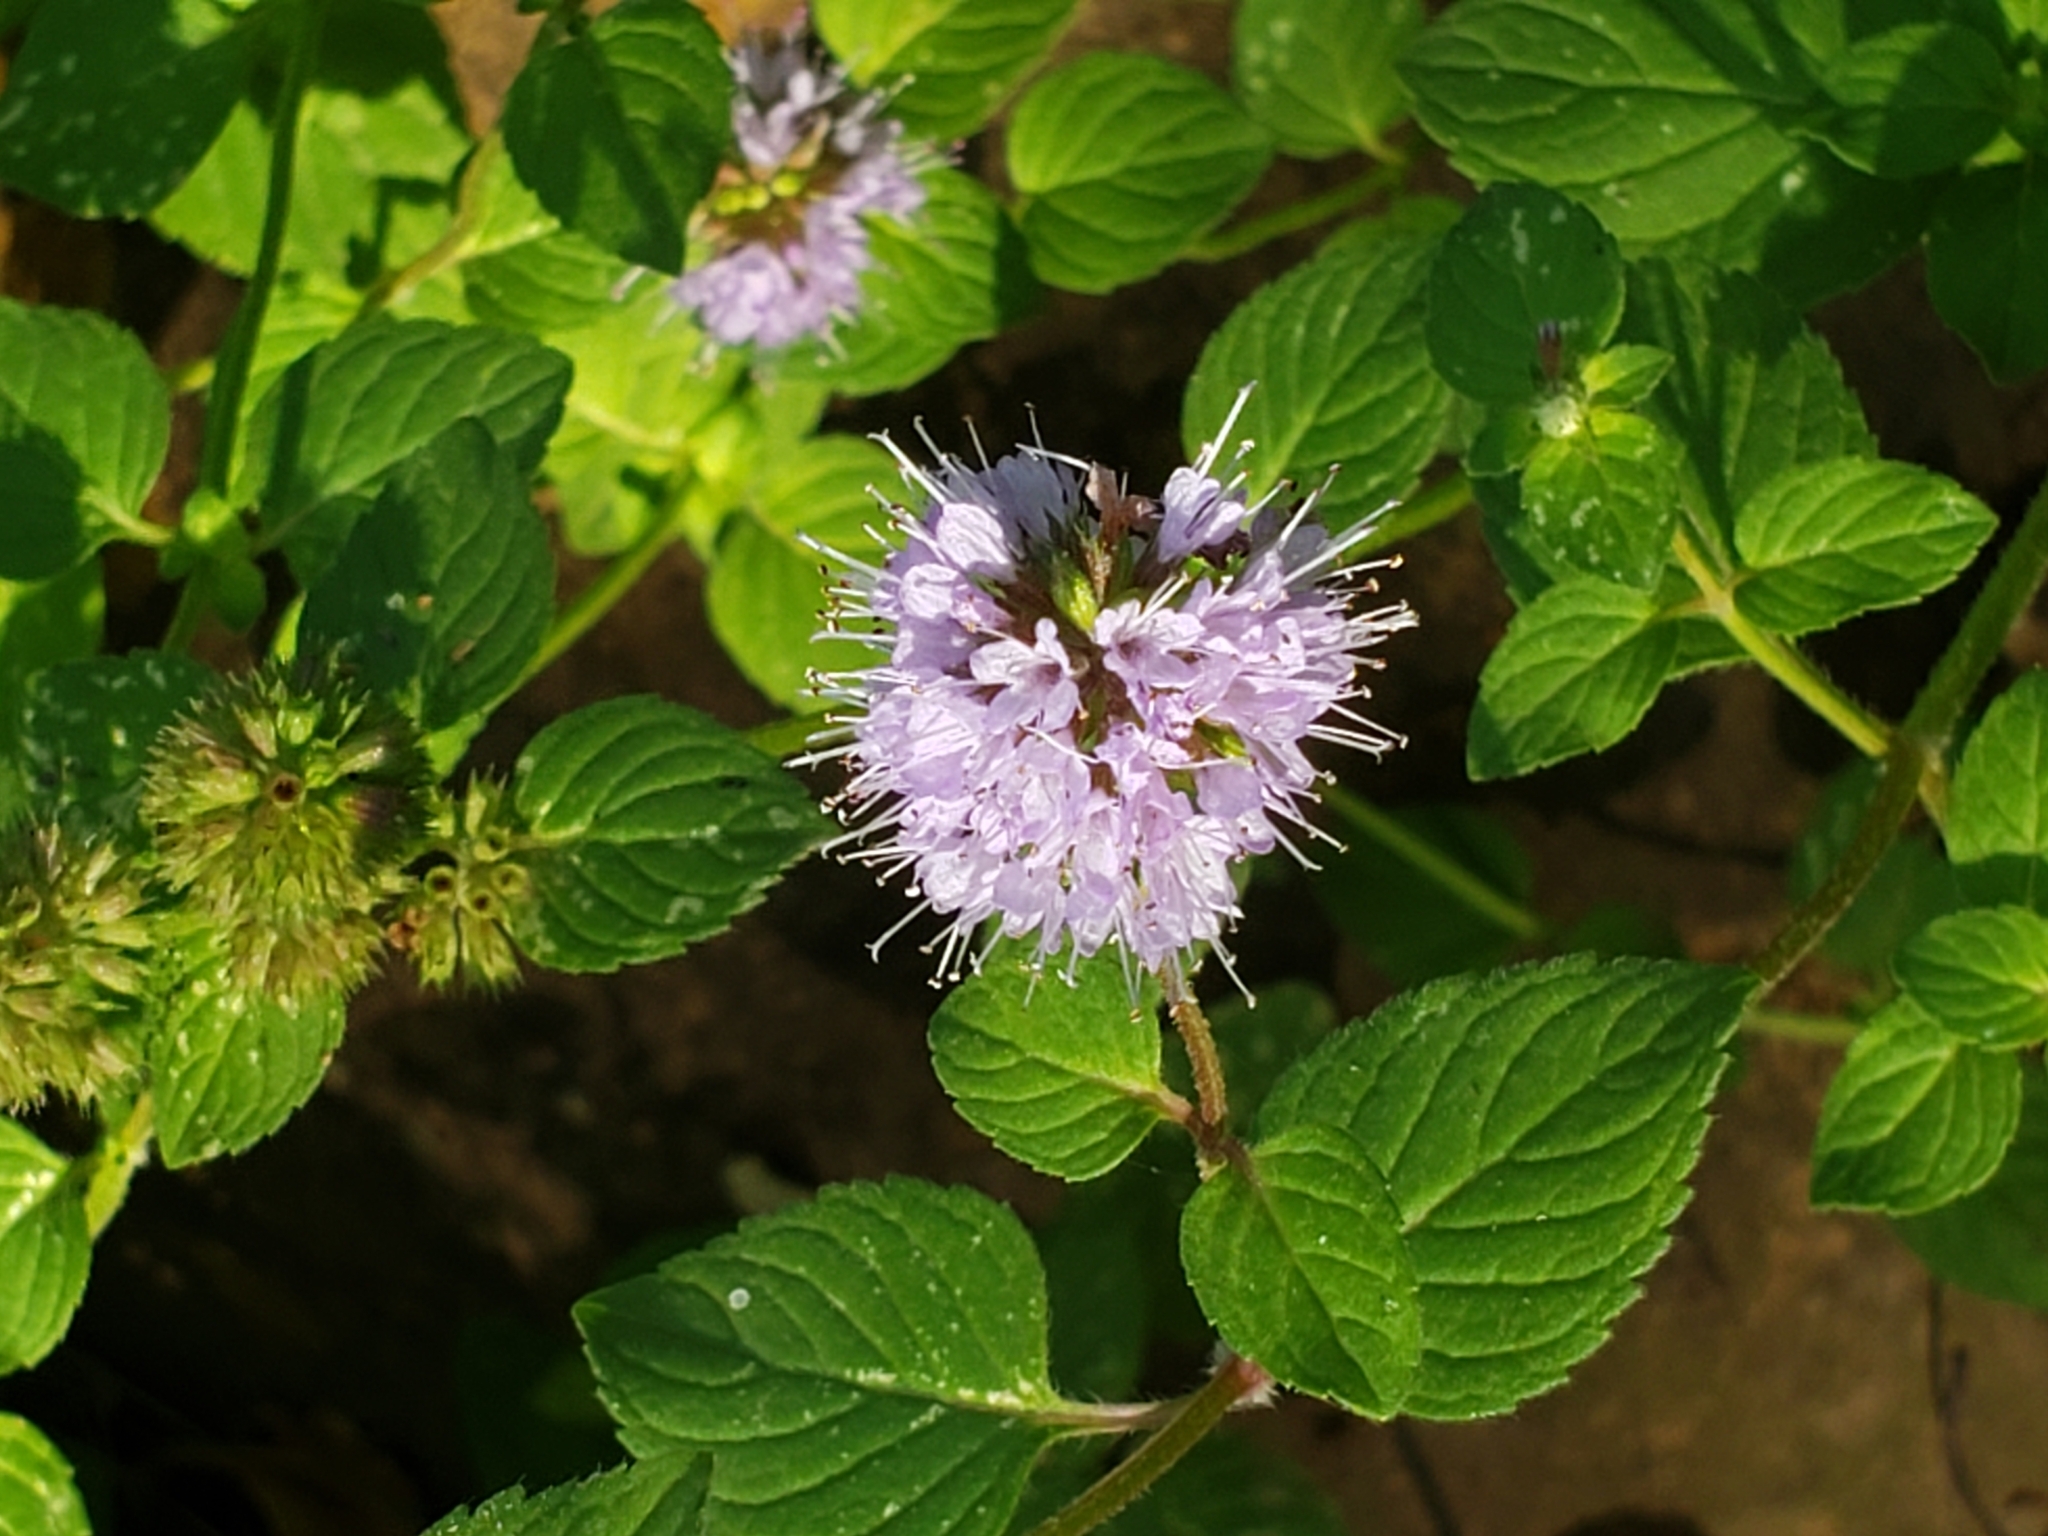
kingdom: Plantae
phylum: Tracheophyta
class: Magnoliopsida
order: Lamiales
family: Lamiaceae
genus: Mentha
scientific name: Mentha aquatica
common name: Water mint
